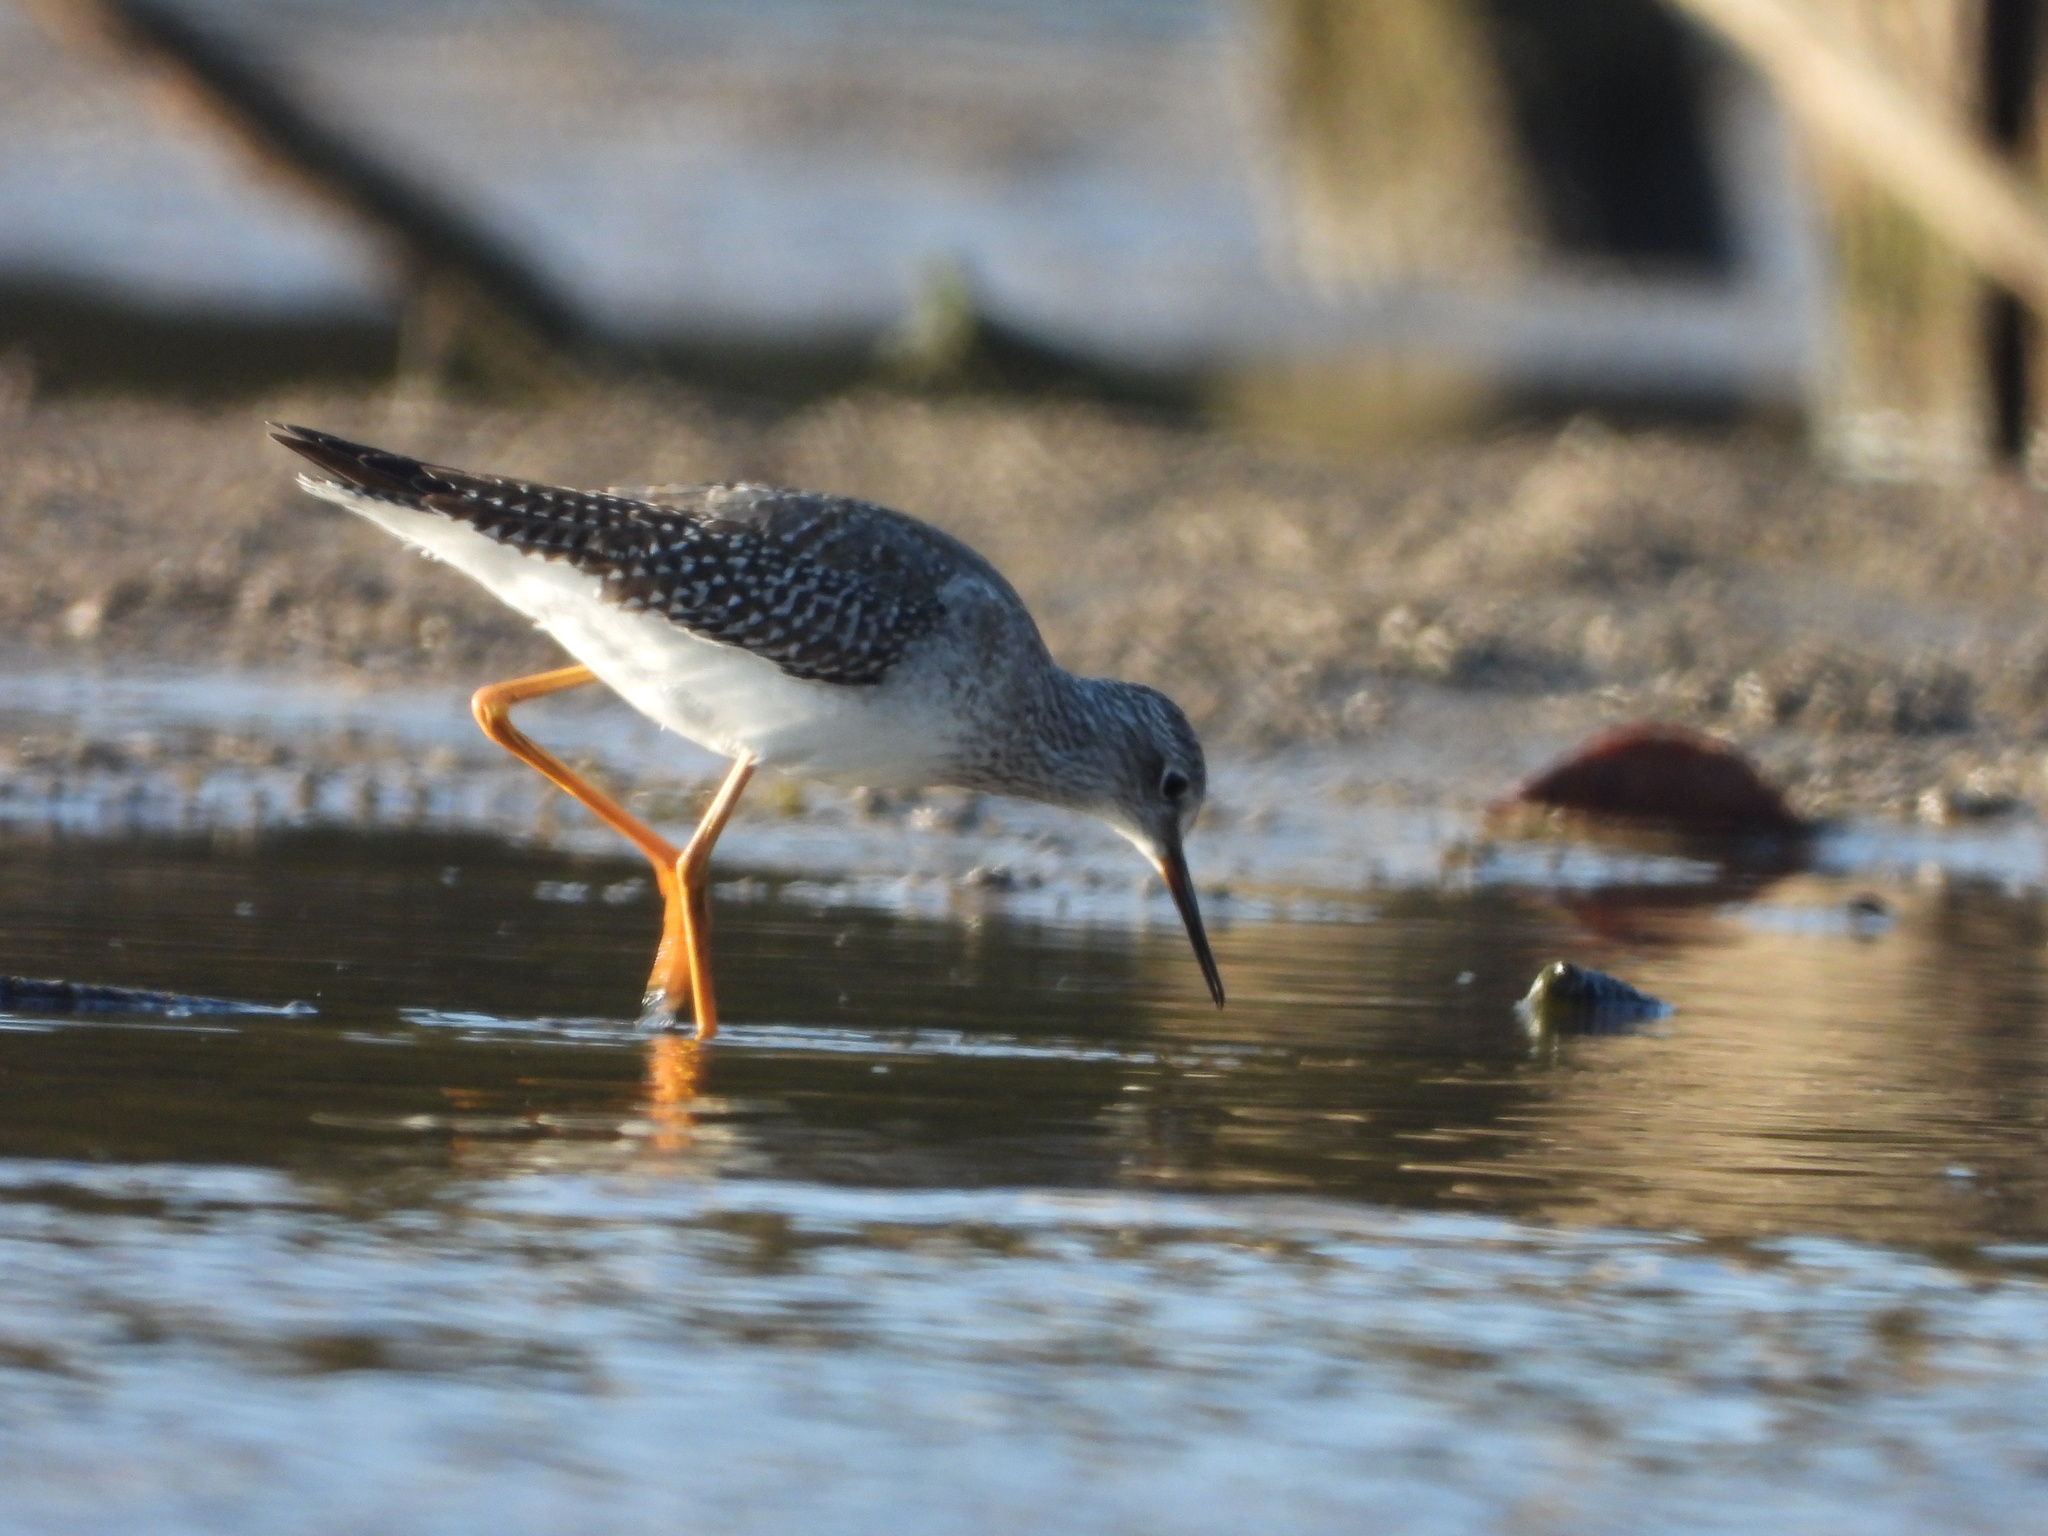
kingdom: Animalia
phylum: Chordata
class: Aves
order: Charadriiformes
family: Scolopacidae
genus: Tringa
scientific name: Tringa flavipes
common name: Lesser yellowlegs
